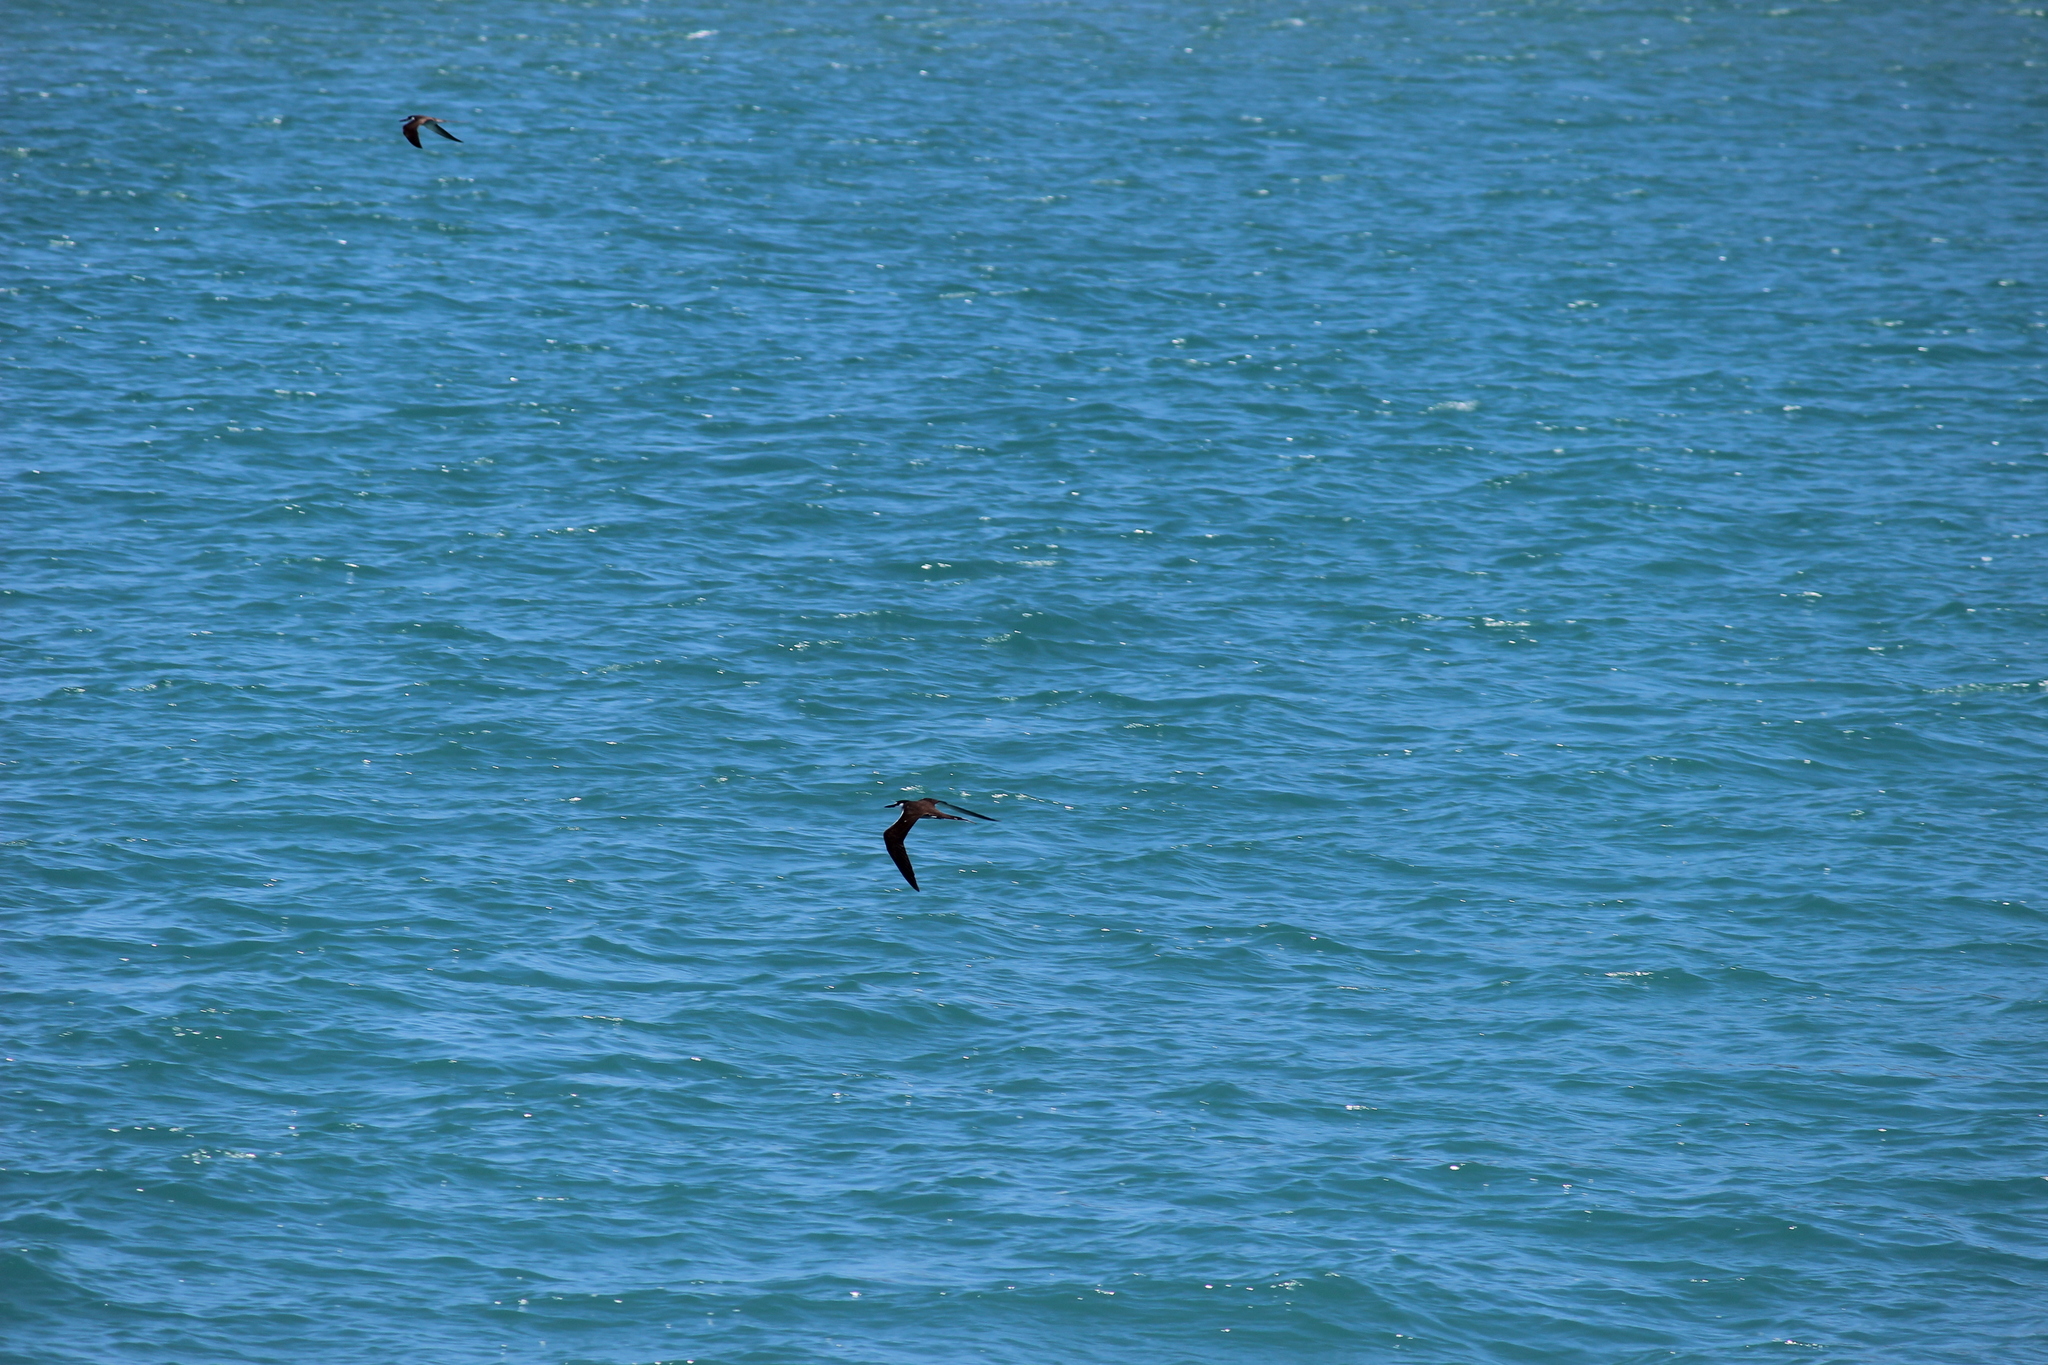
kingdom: Animalia
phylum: Chordata
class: Aves
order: Charadriiformes
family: Laridae
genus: Onychoprion
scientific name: Onychoprion fuscatus
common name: Sooty tern
